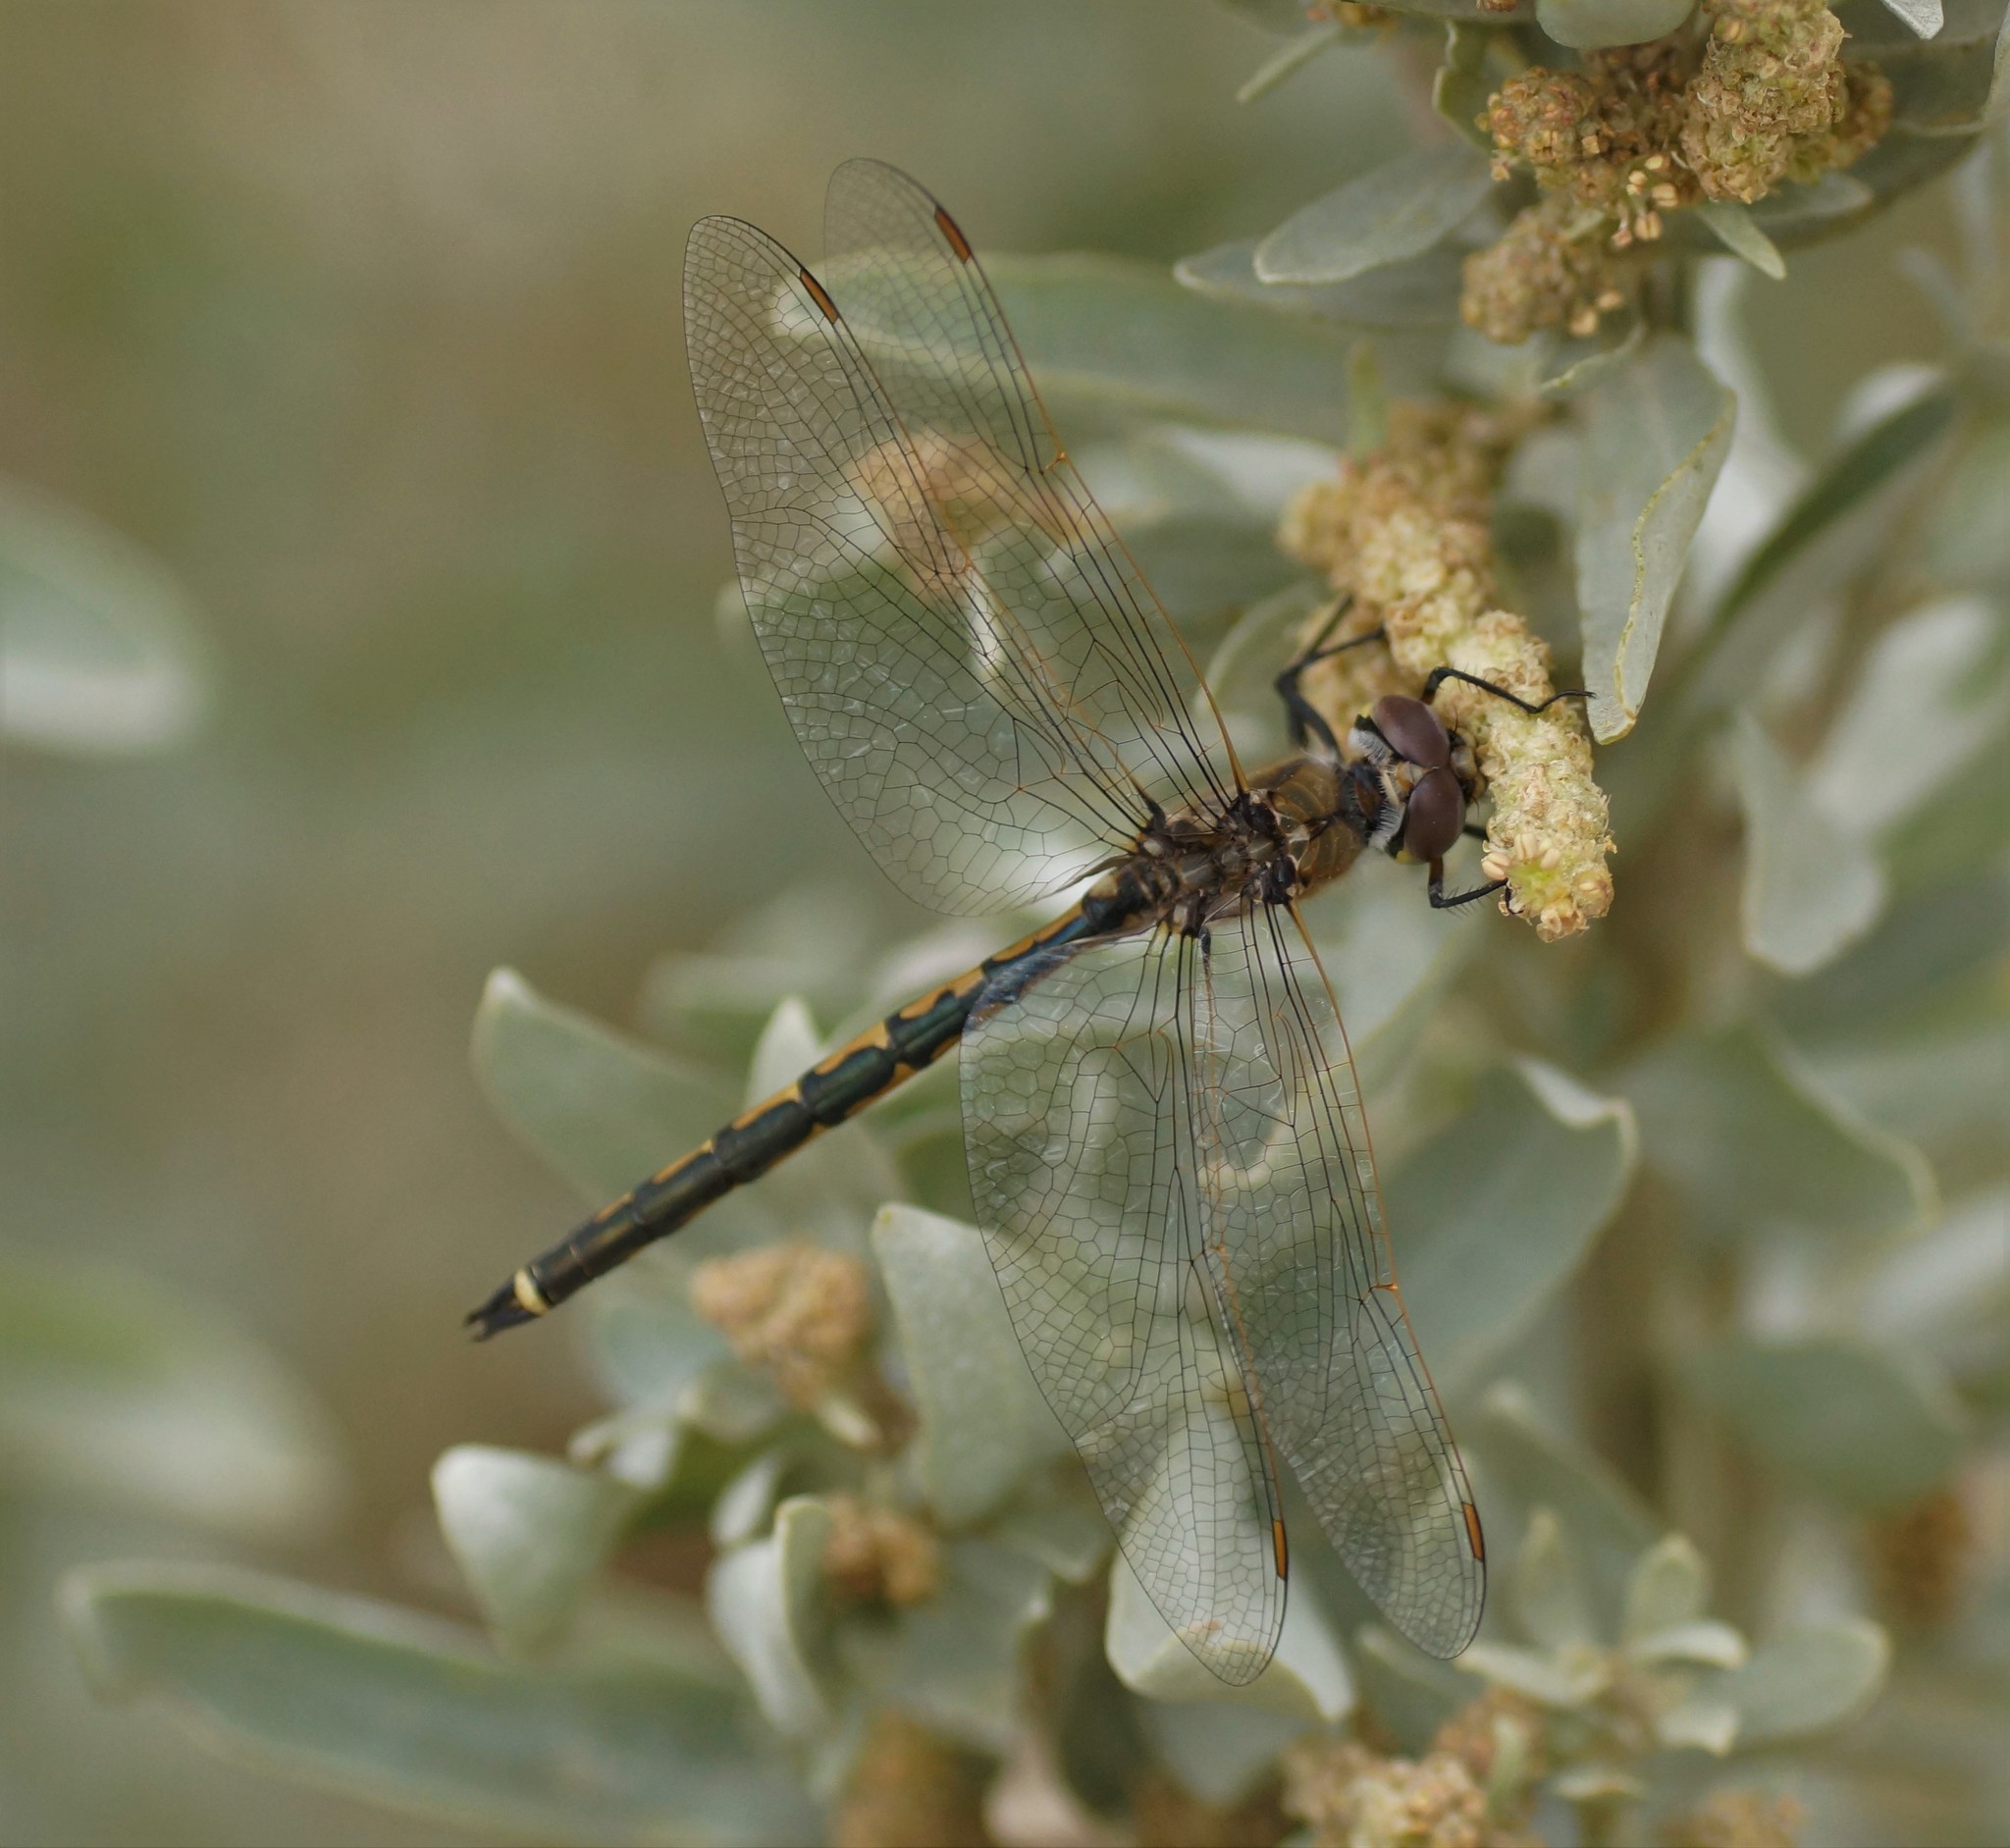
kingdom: Animalia
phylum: Arthropoda
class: Insecta
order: Odonata
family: Corduliidae
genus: Hemicordulia
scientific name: Hemicordulia tau
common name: Tau emerald
